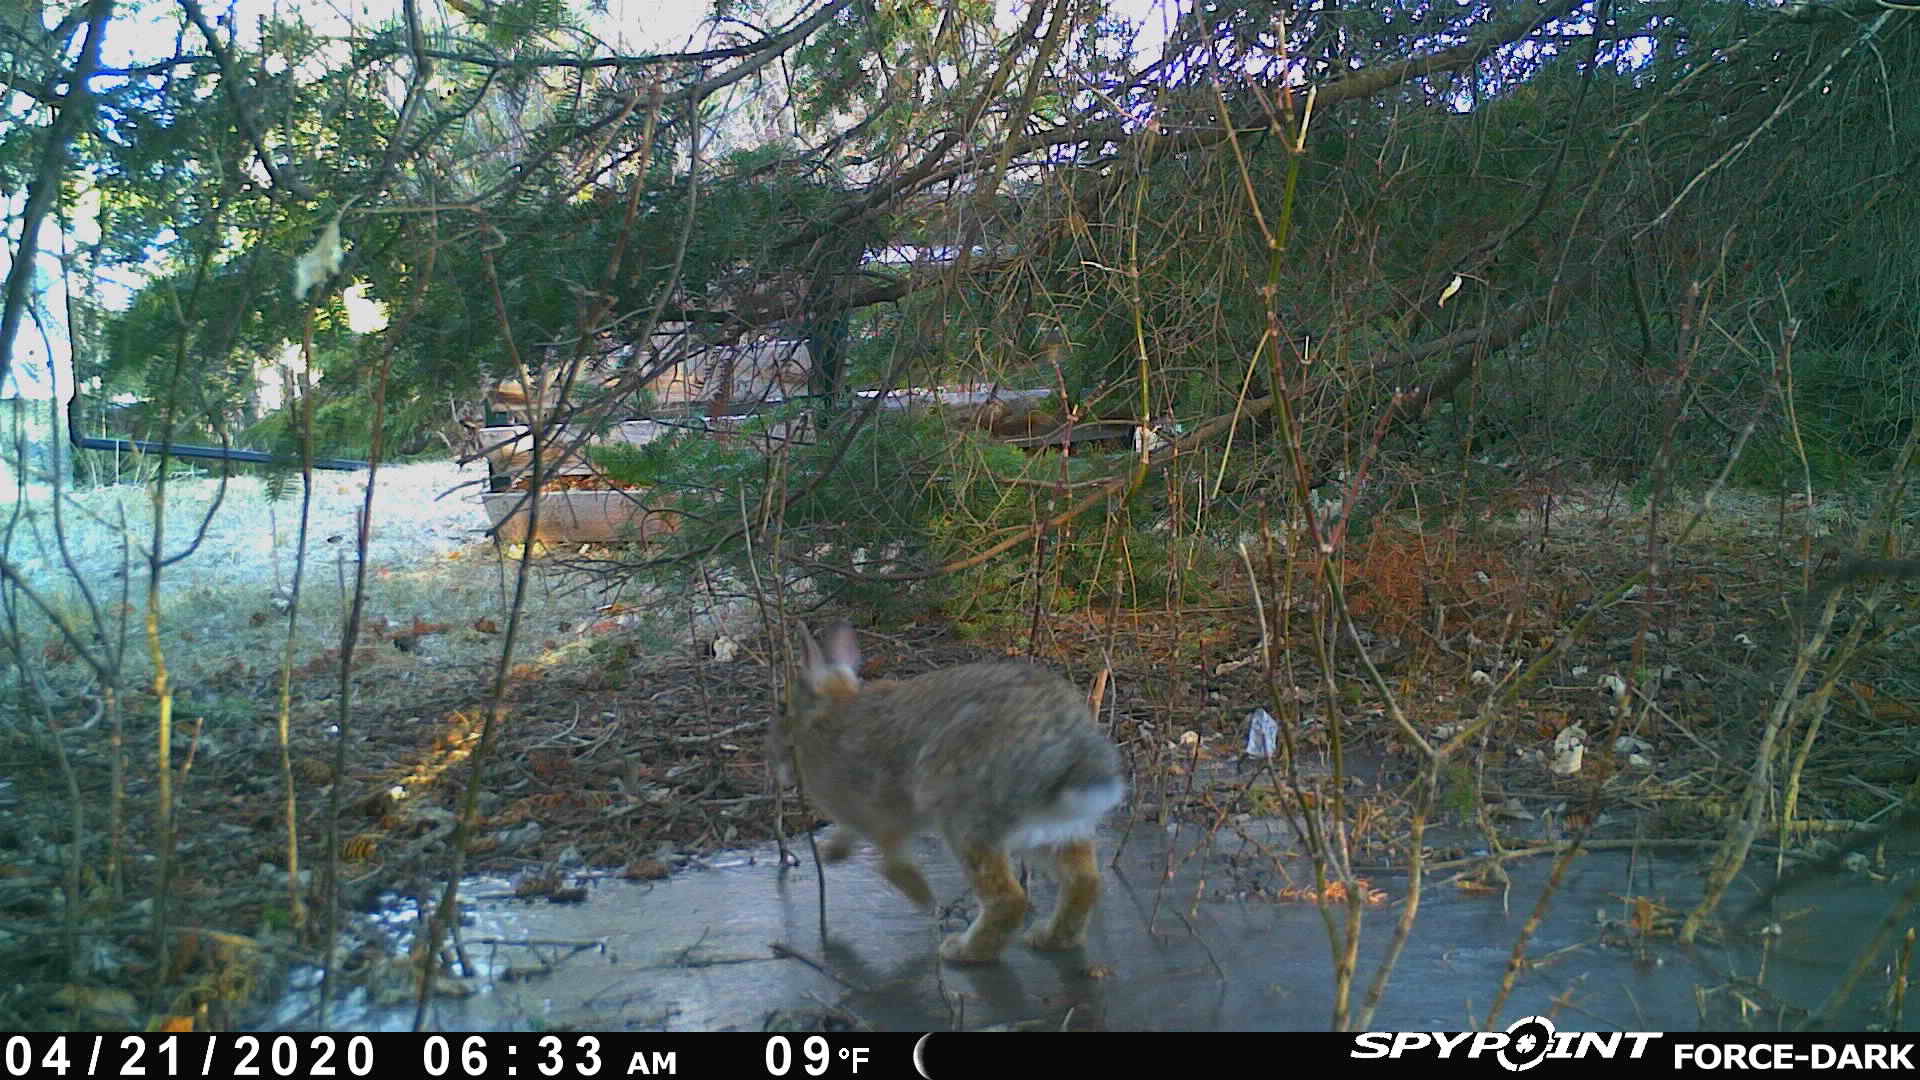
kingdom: Animalia
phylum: Chordata
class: Mammalia
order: Lagomorpha
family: Leporidae
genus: Sylvilagus
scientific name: Sylvilagus floridanus
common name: Eastern cottontail
